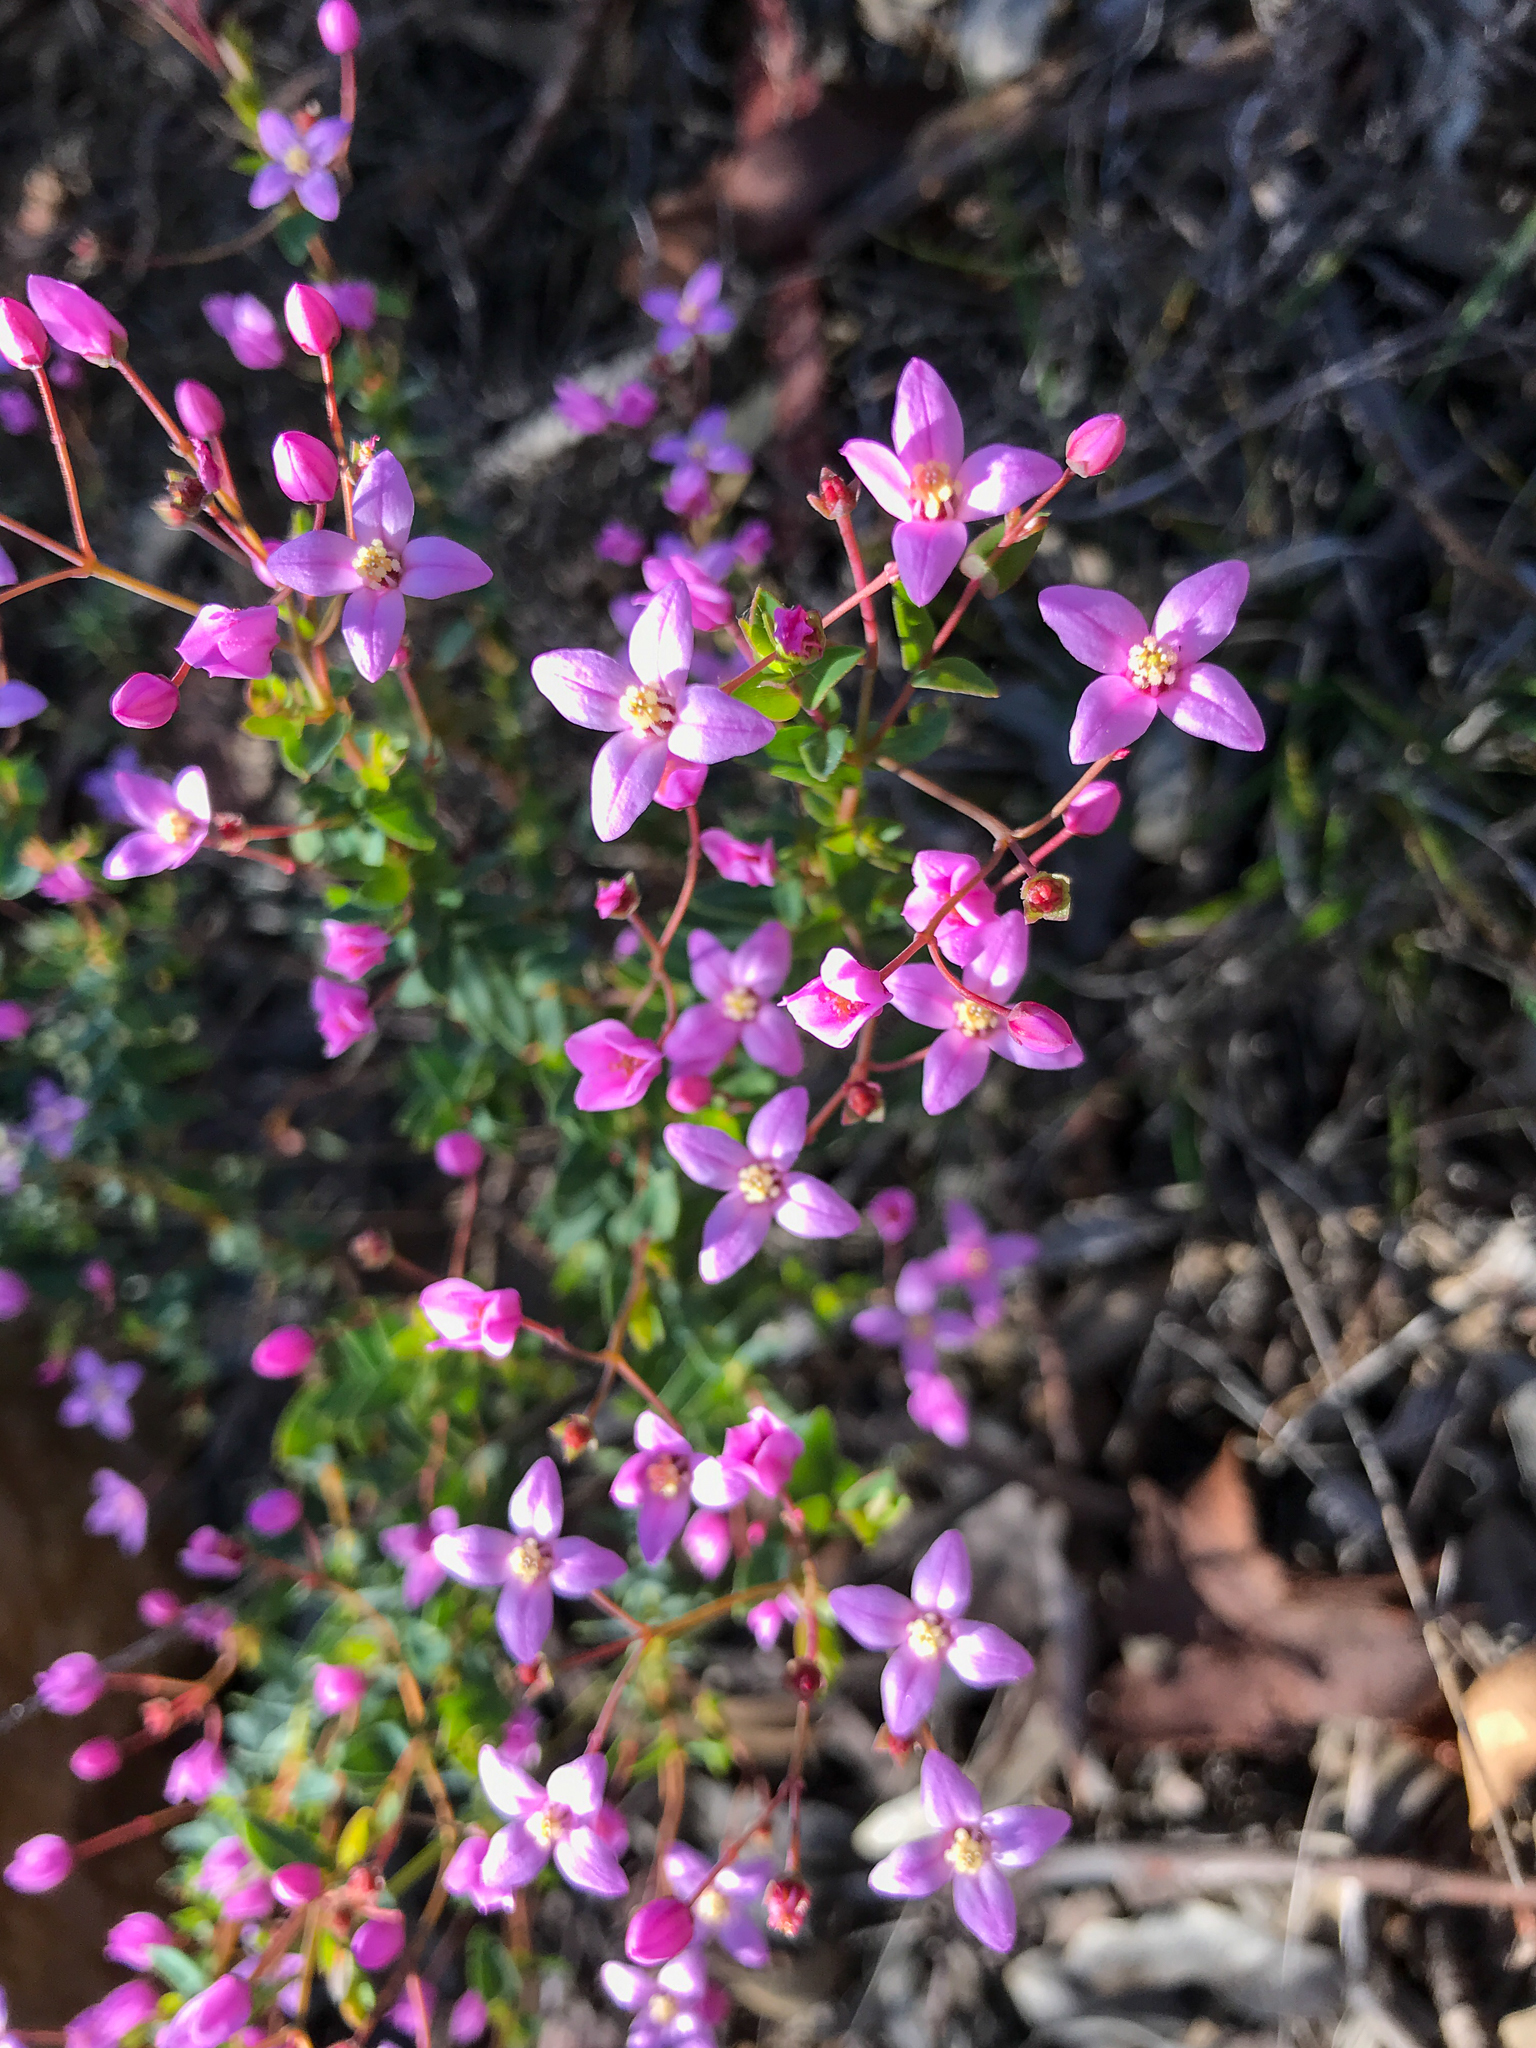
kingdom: Plantae
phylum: Tracheophyta
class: Magnoliopsida
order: Sapindales
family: Rutaceae
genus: Boronia
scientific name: Boronia ovata
